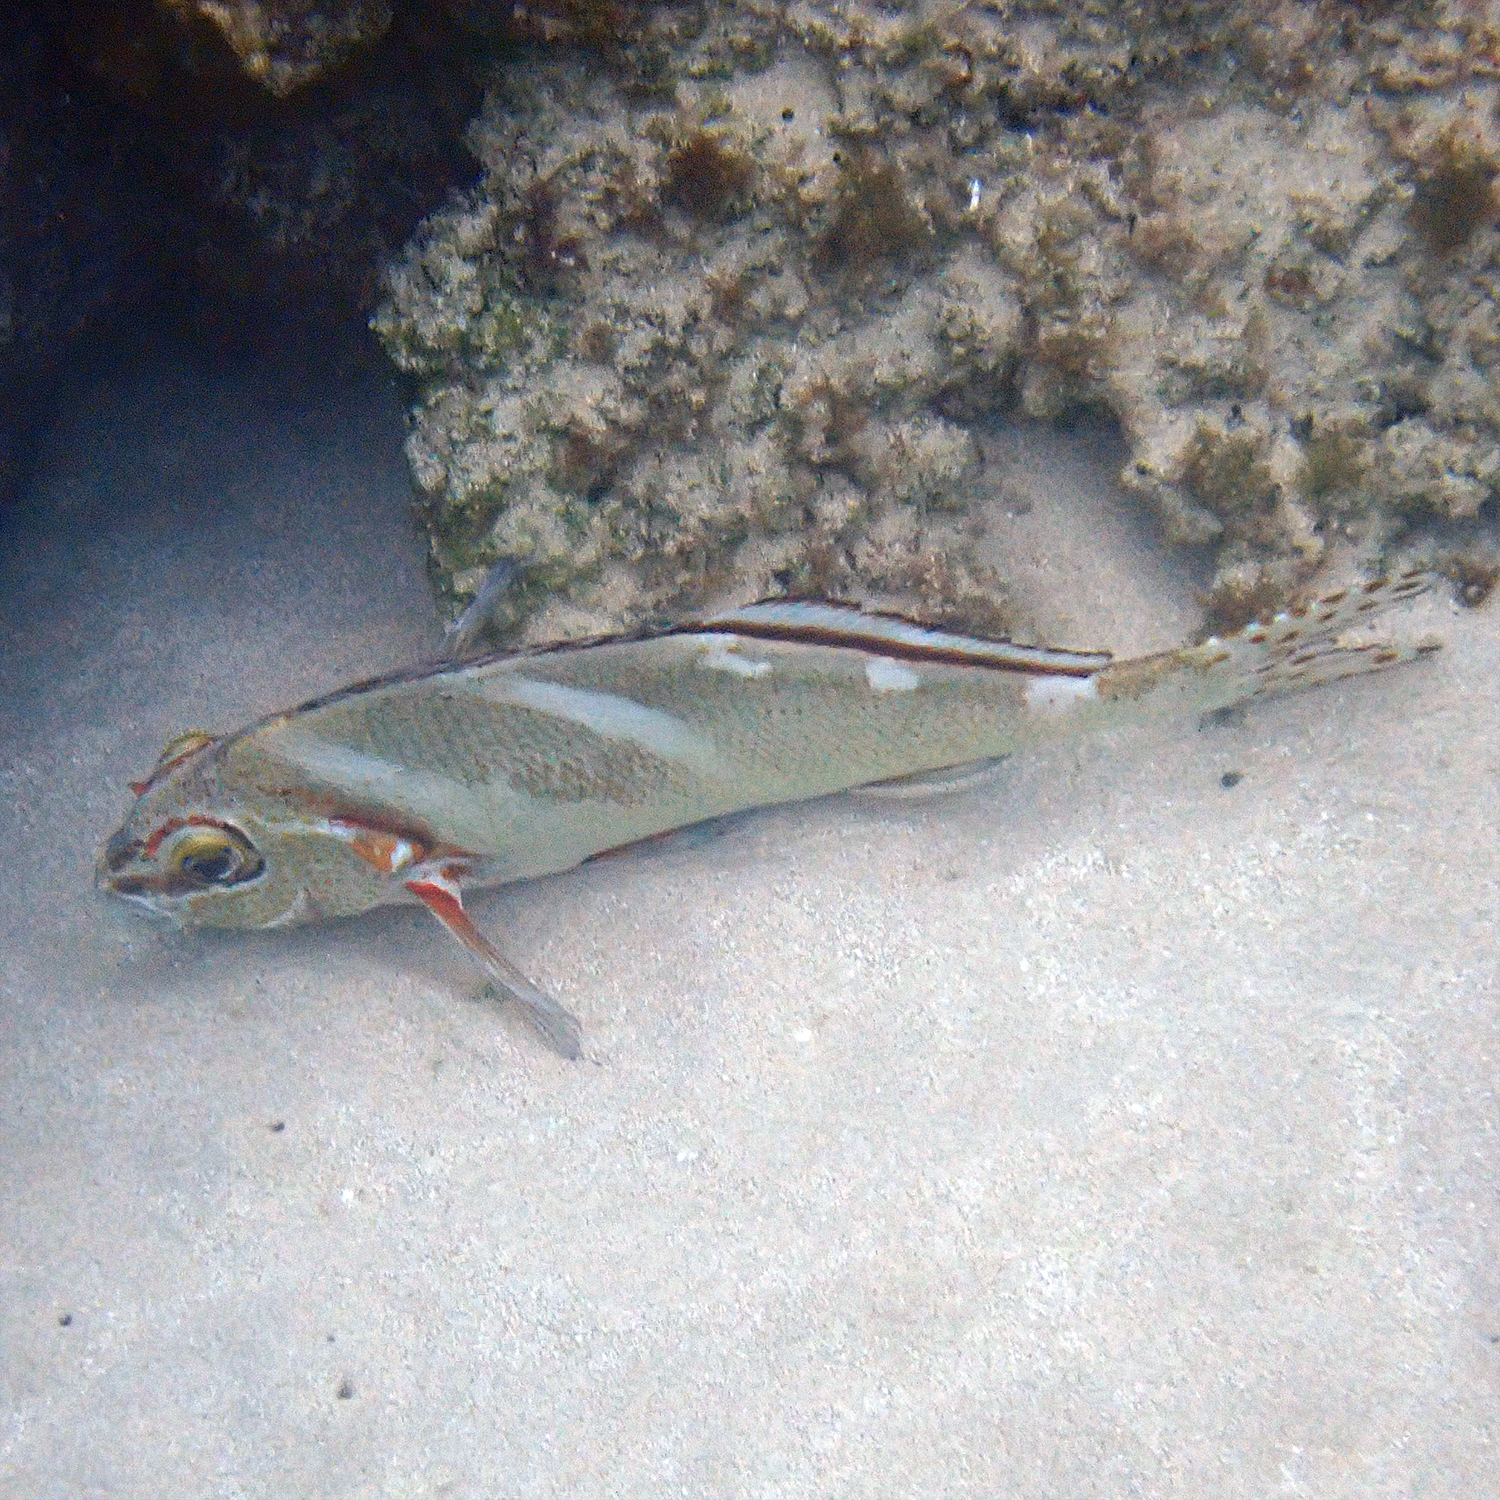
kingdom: Animalia
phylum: Chordata
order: Perciformes
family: Latridae
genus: Morwong
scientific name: Morwong ephippium
